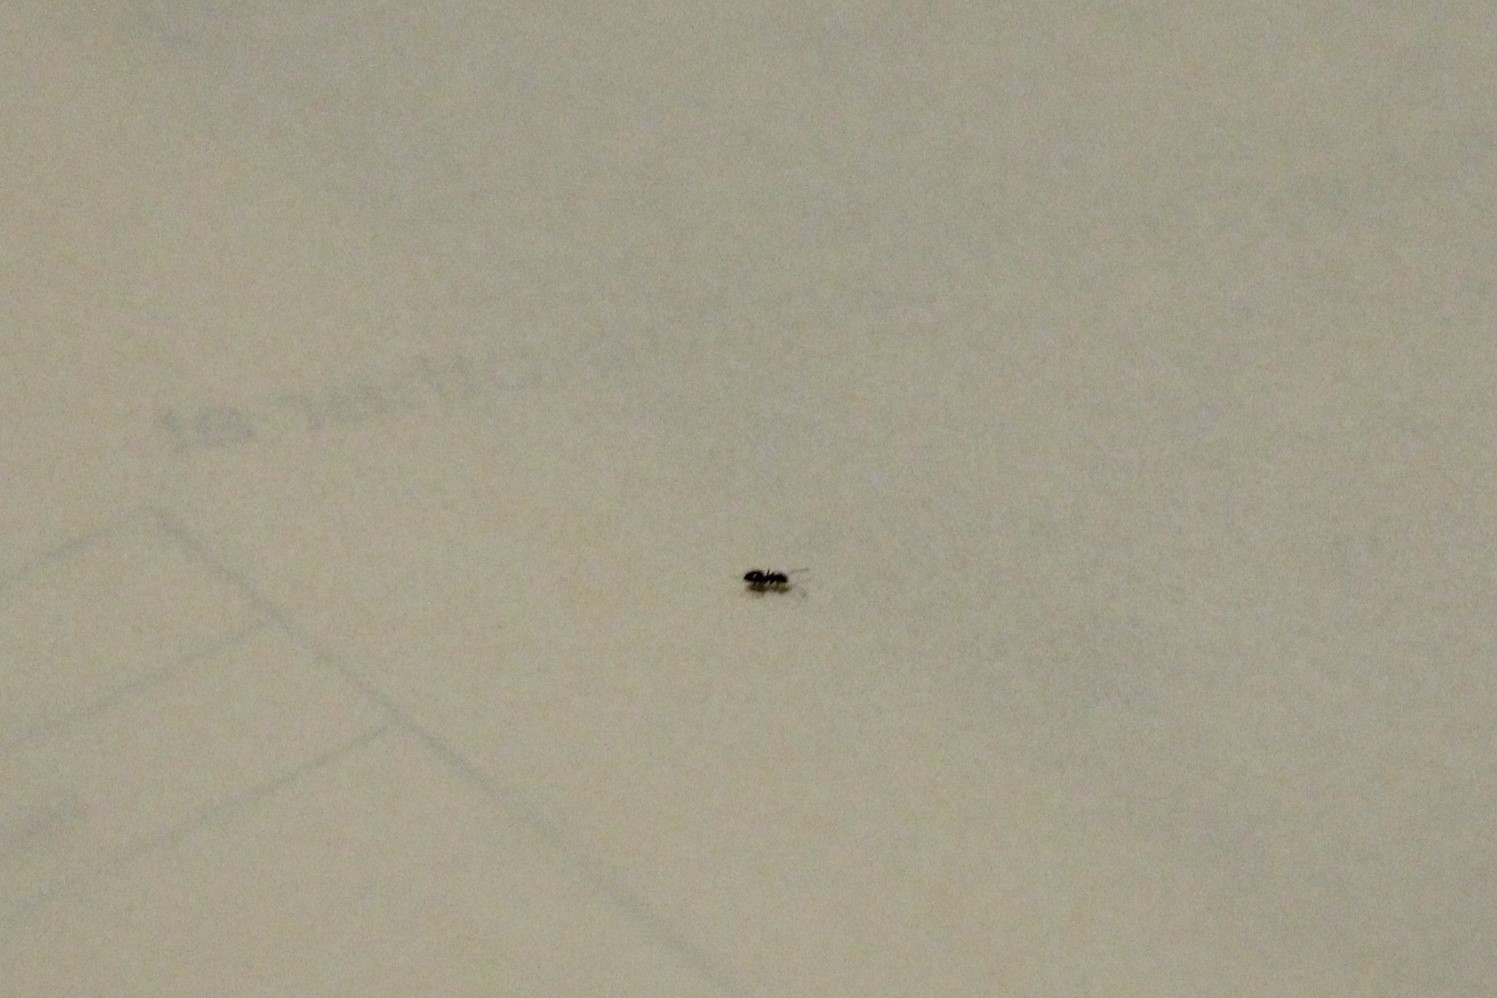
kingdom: Animalia
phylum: Arthropoda
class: Insecta
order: Hymenoptera
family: Formicidae
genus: Brachymyrmex
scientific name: Brachymyrmex patagonicus
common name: Dark rover ant
